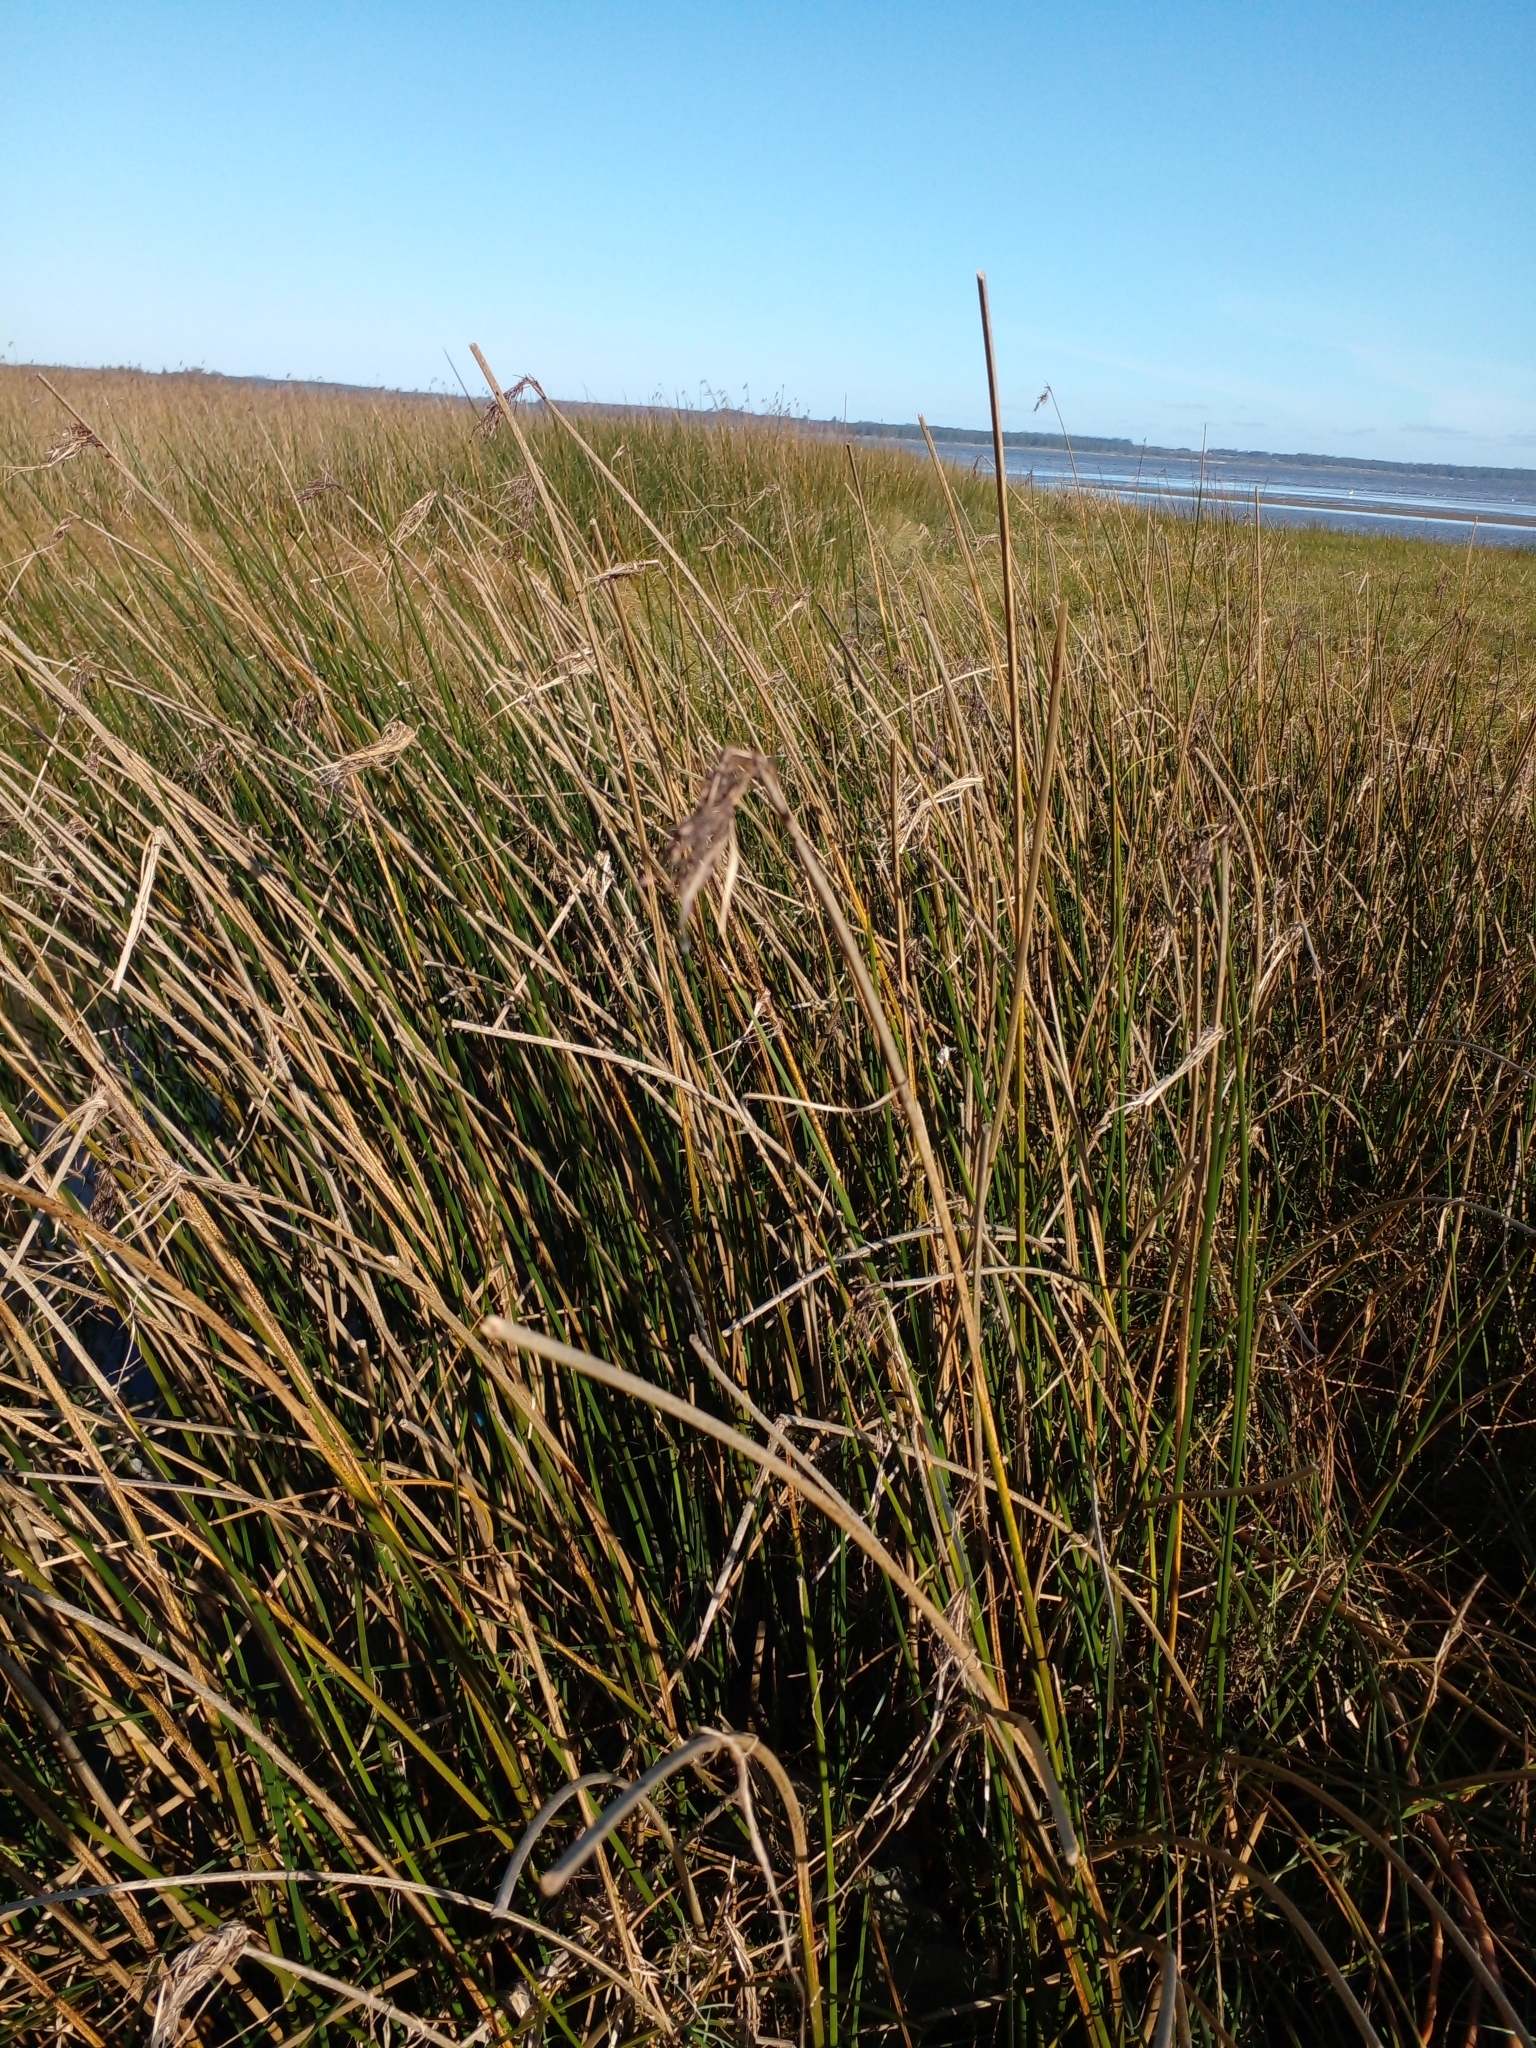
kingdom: Plantae
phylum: Tracheophyta
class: Liliopsida
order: Poales
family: Cyperaceae
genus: Schoenoplectus
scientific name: Schoenoplectus californicus
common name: California bulrush
